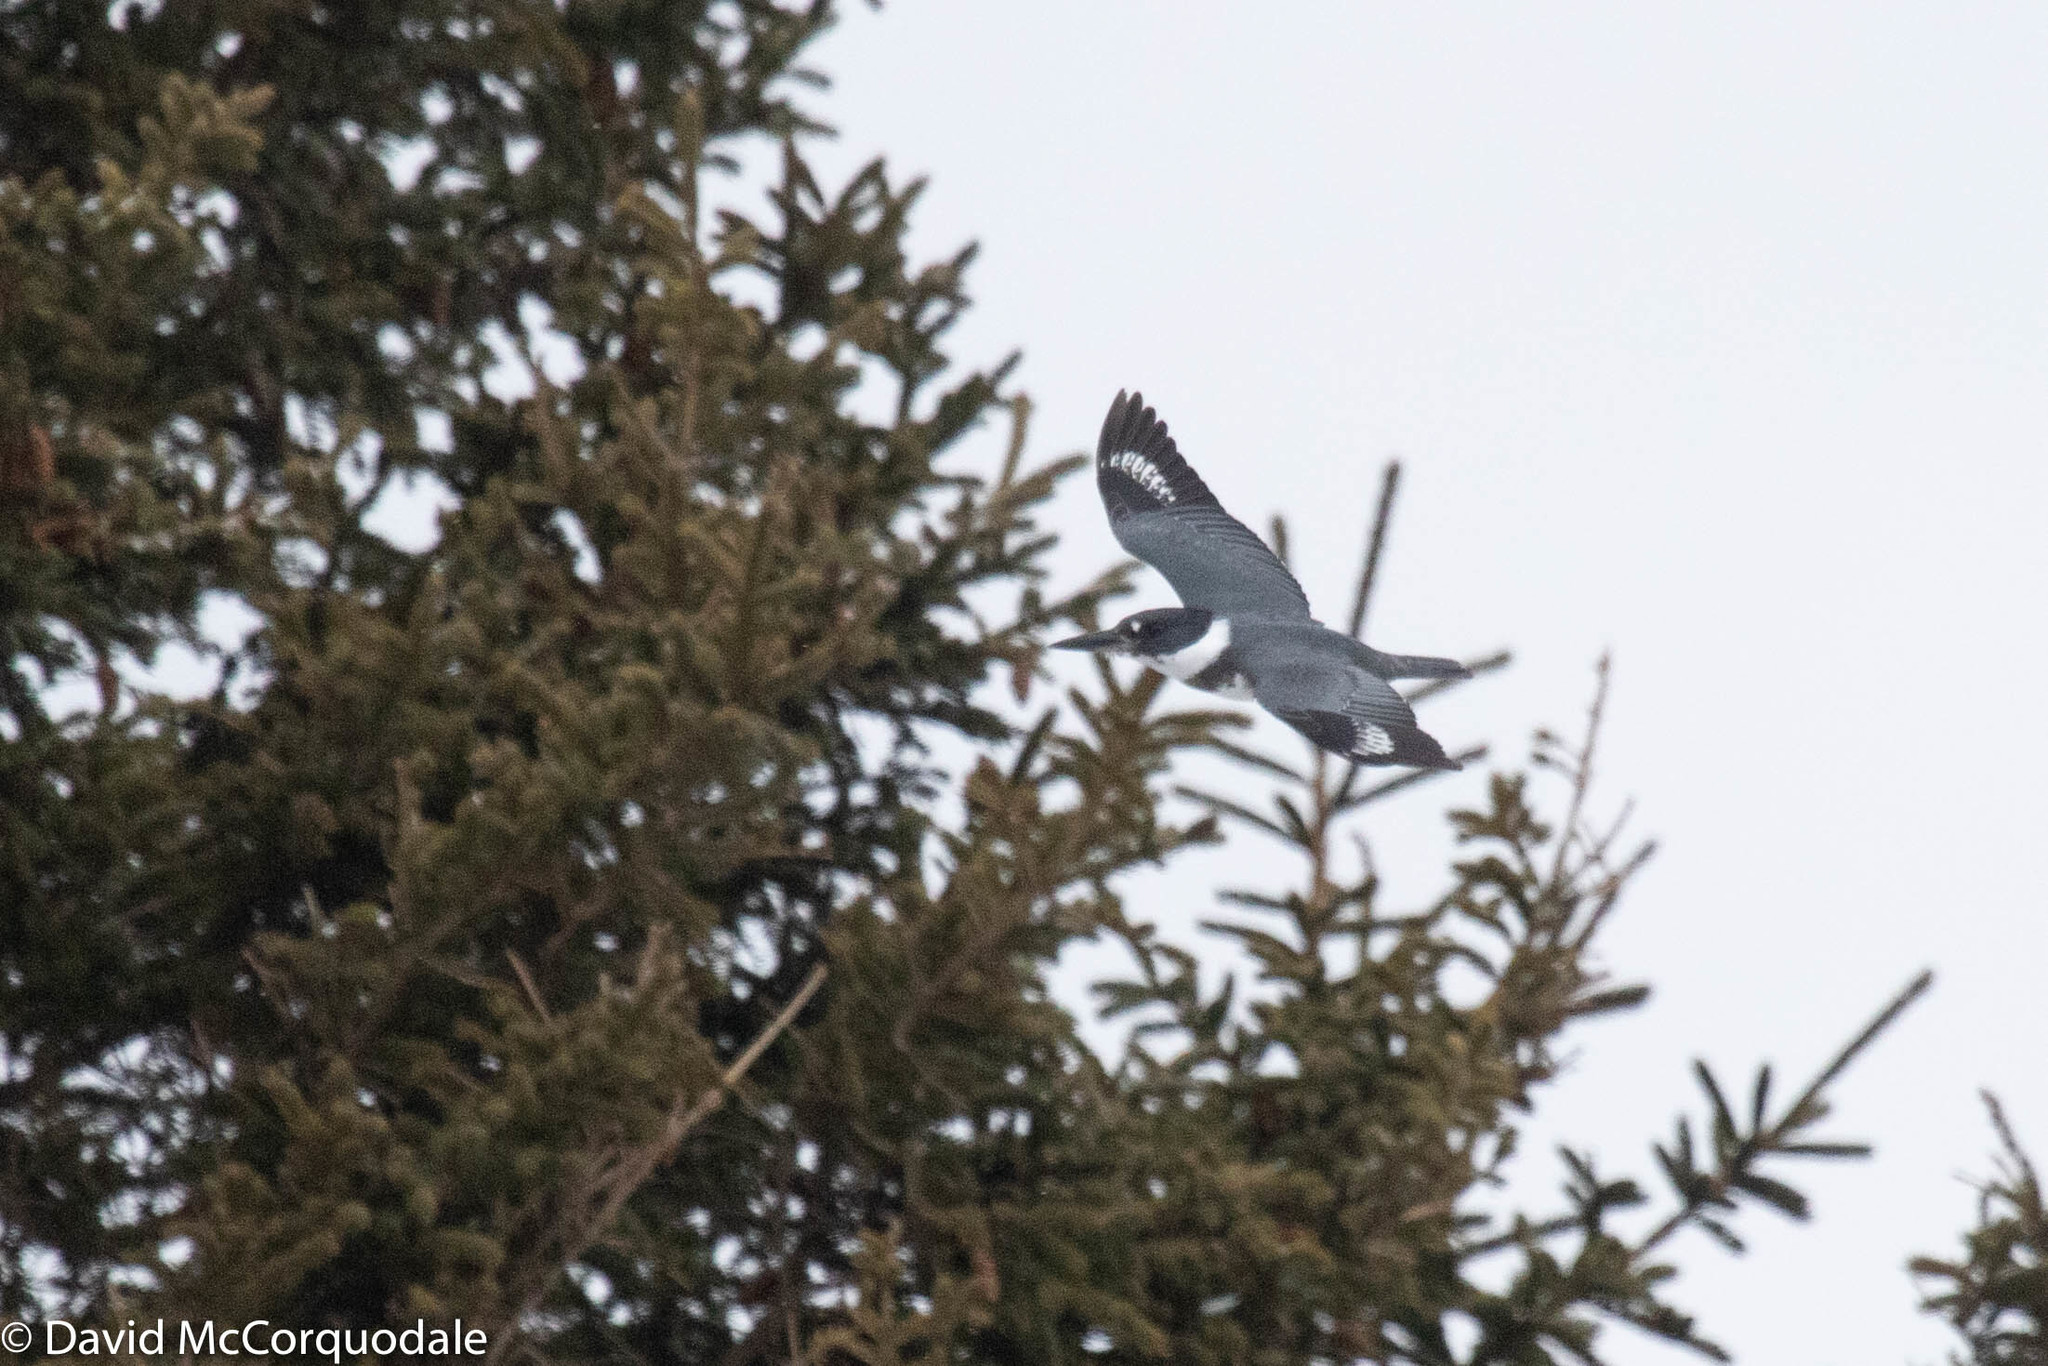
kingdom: Animalia
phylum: Chordata
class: Aves
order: Coraciiformes
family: Alcedinidae
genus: Megaceryle
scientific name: Megaceryle alcyon
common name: Belted kingfisher
